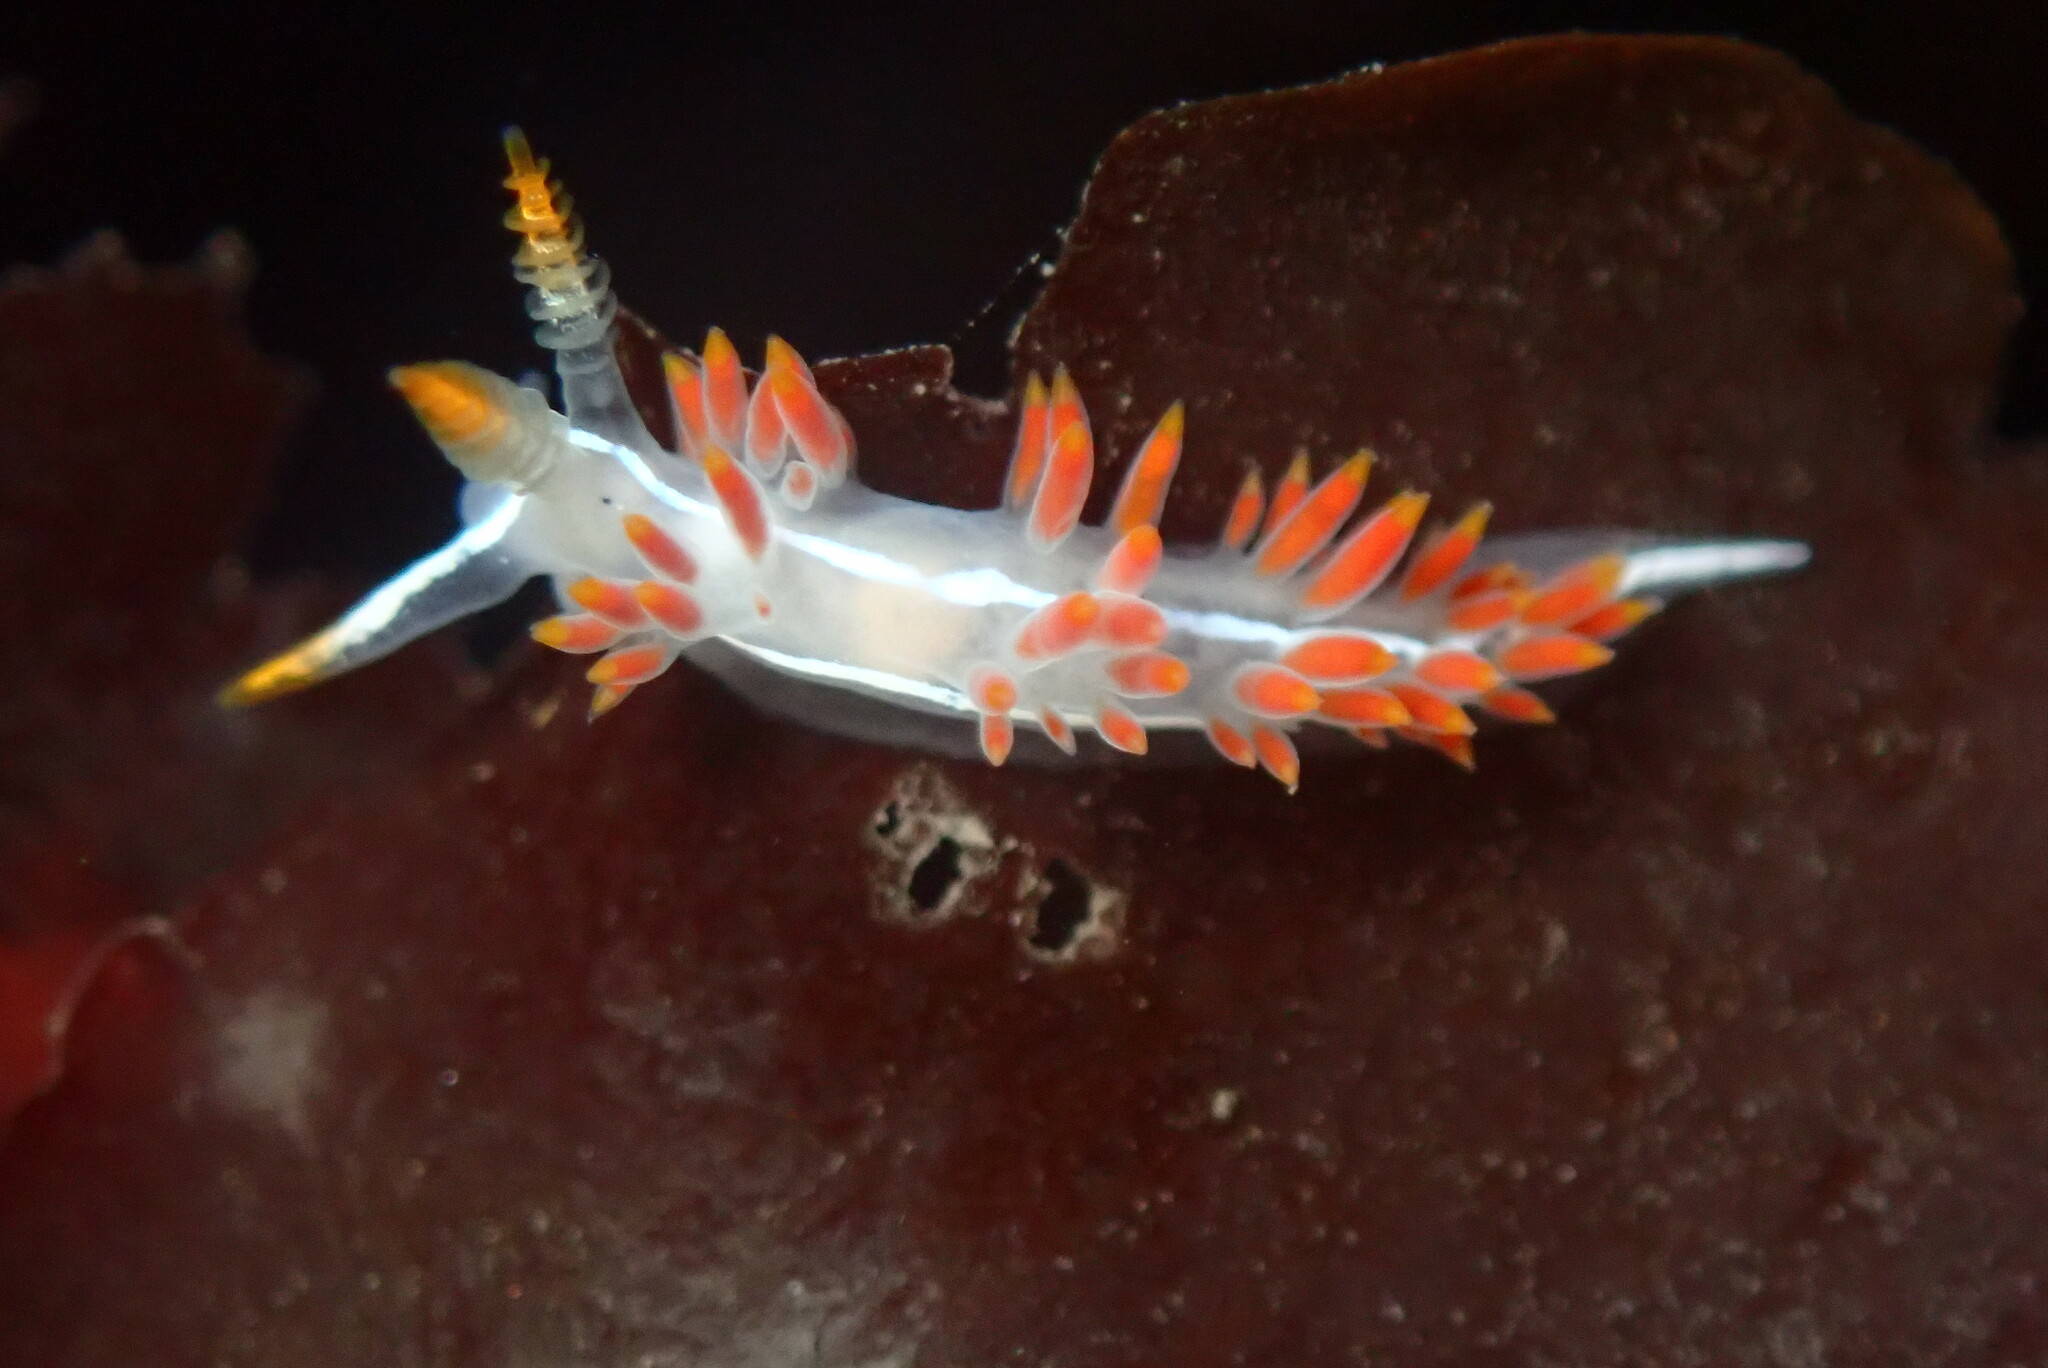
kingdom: Animalia
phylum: Mollusca
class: Gastropoda
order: Nudibranchia
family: Coryphellidae
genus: Coryphella
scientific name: Coryphella trilineata
